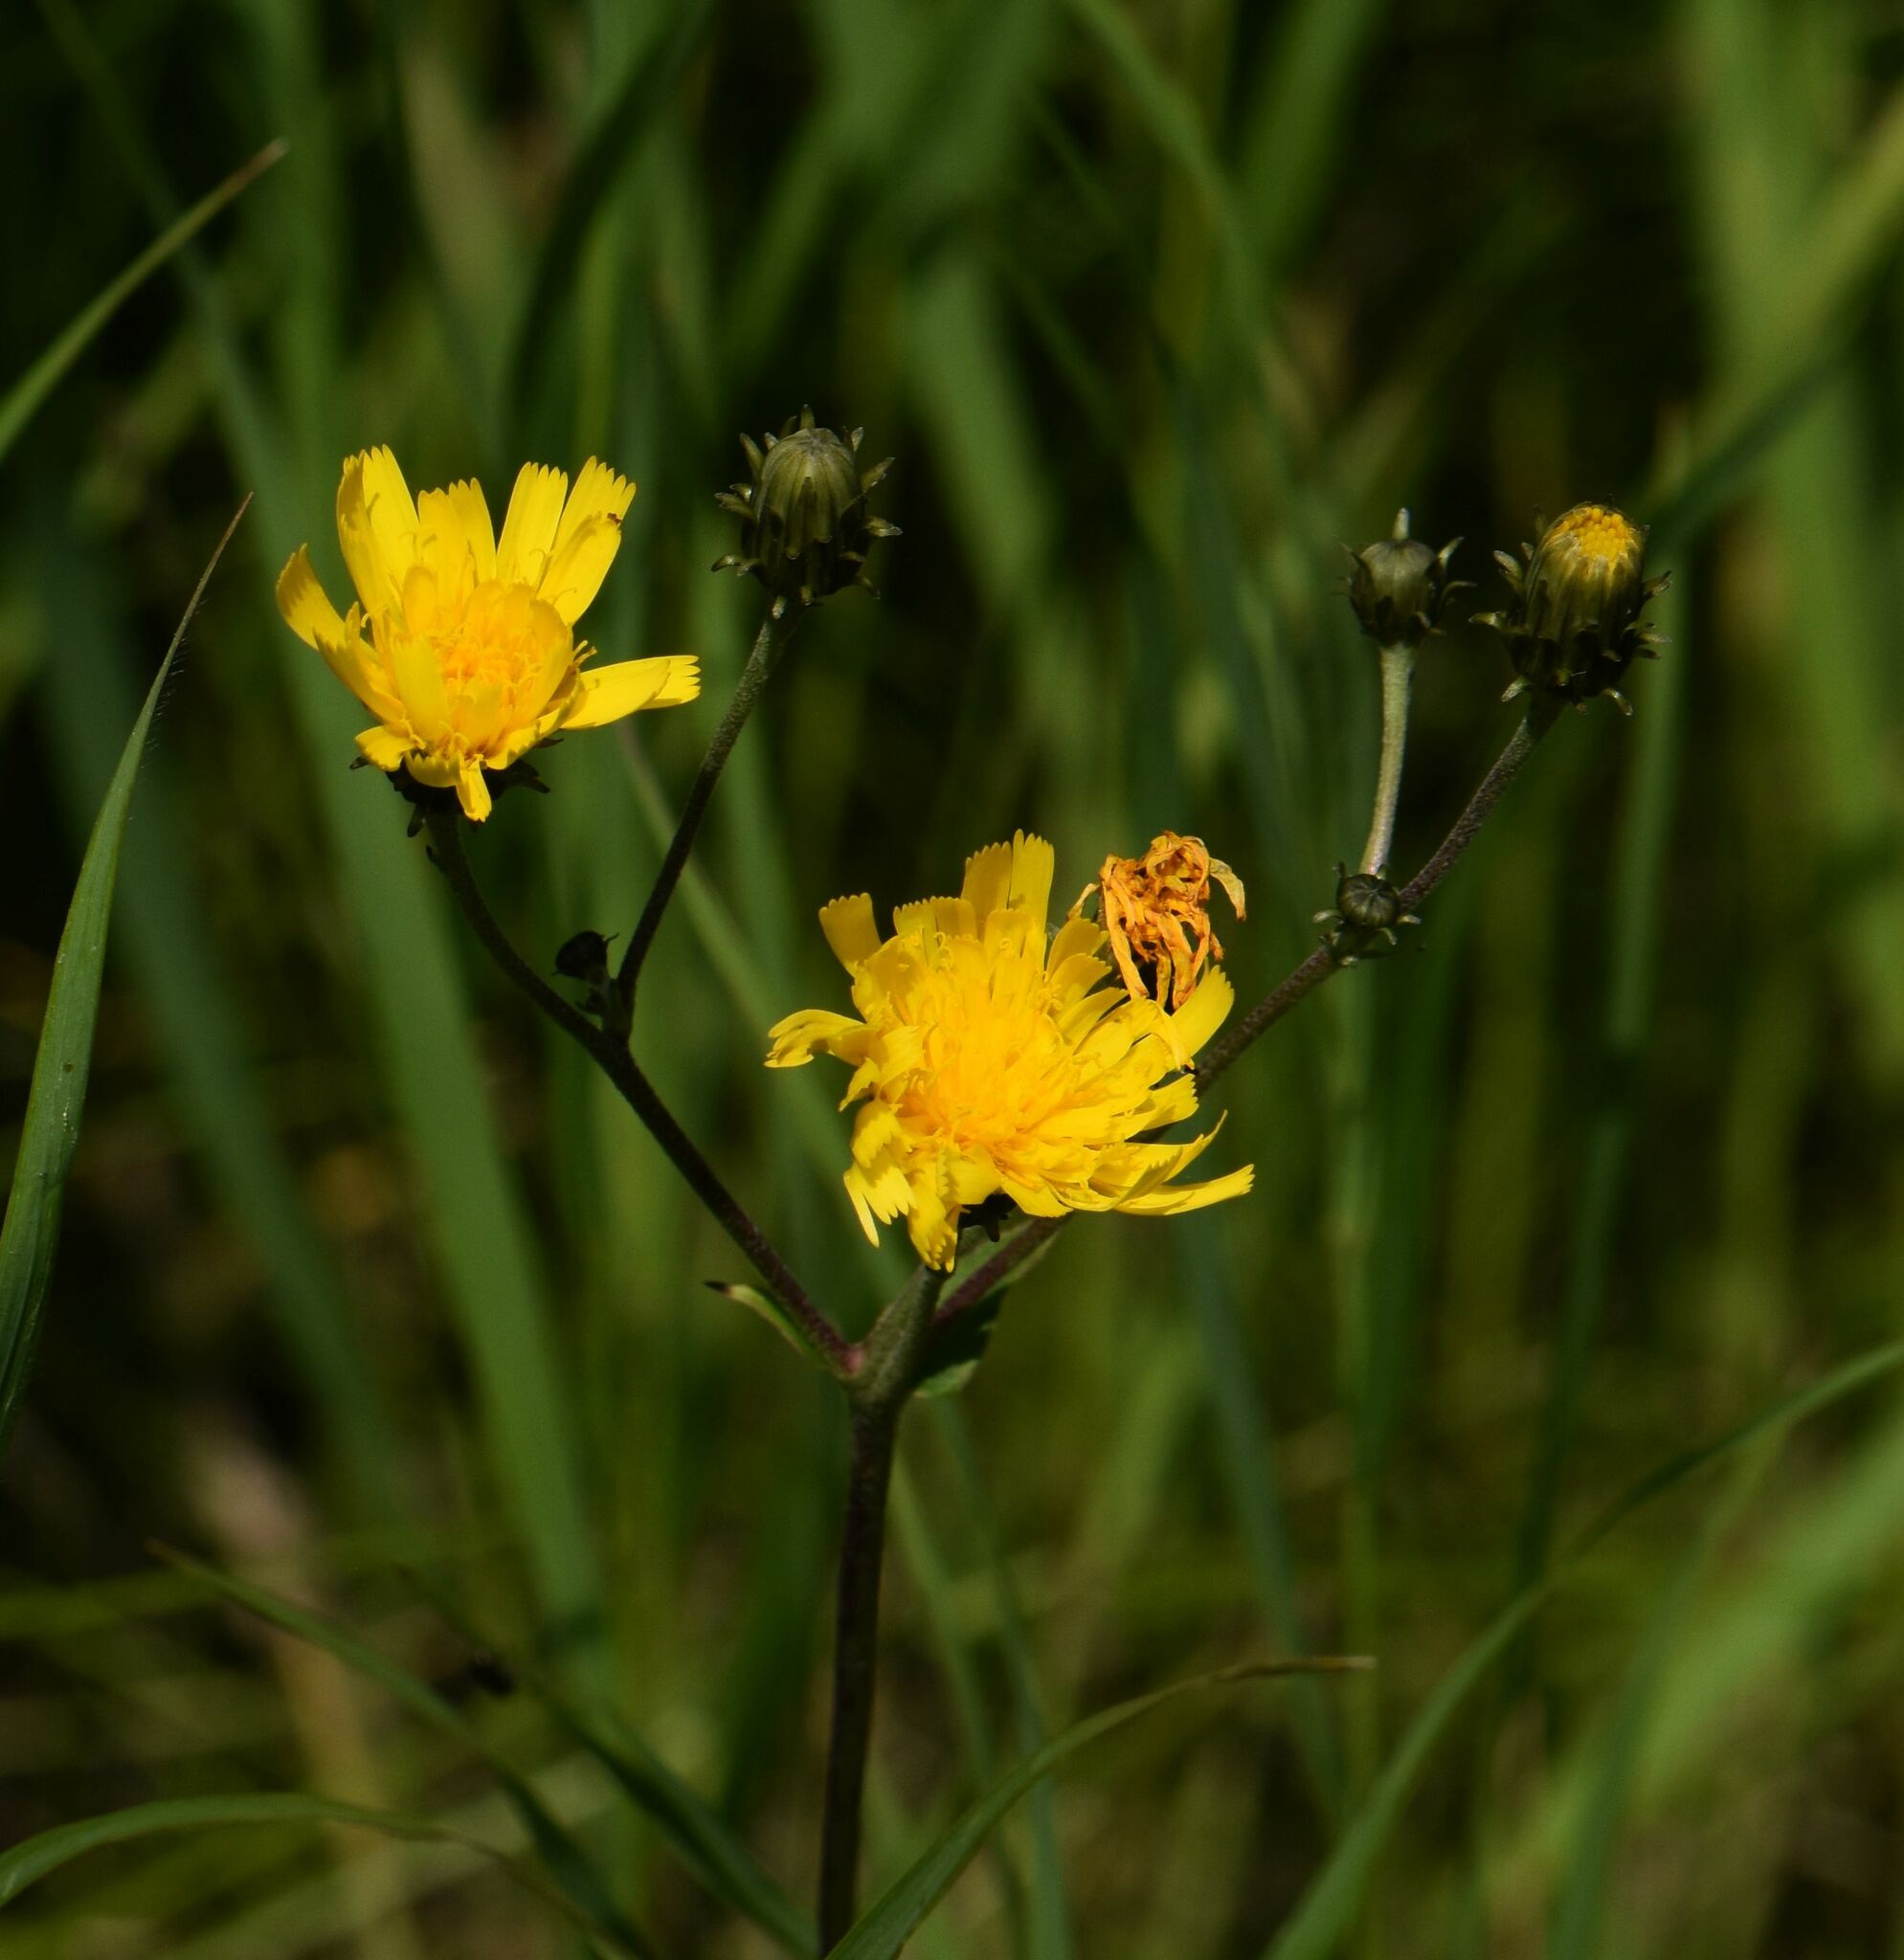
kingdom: Plantae
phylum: Tracheophyta
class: Magnoliopsida
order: Asterales
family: Asteraceae
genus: Hieracium
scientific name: Hieracium umbellatum
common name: Northern hawkweed
